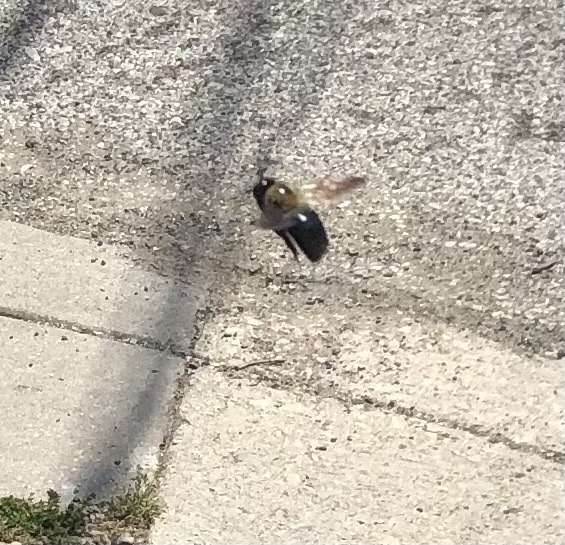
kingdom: Animalia
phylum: Arthropoda
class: Insecta
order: Hymenoptera
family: Apidae
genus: Xylocopa
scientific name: Xylocopa virginica
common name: Carpenter bee
